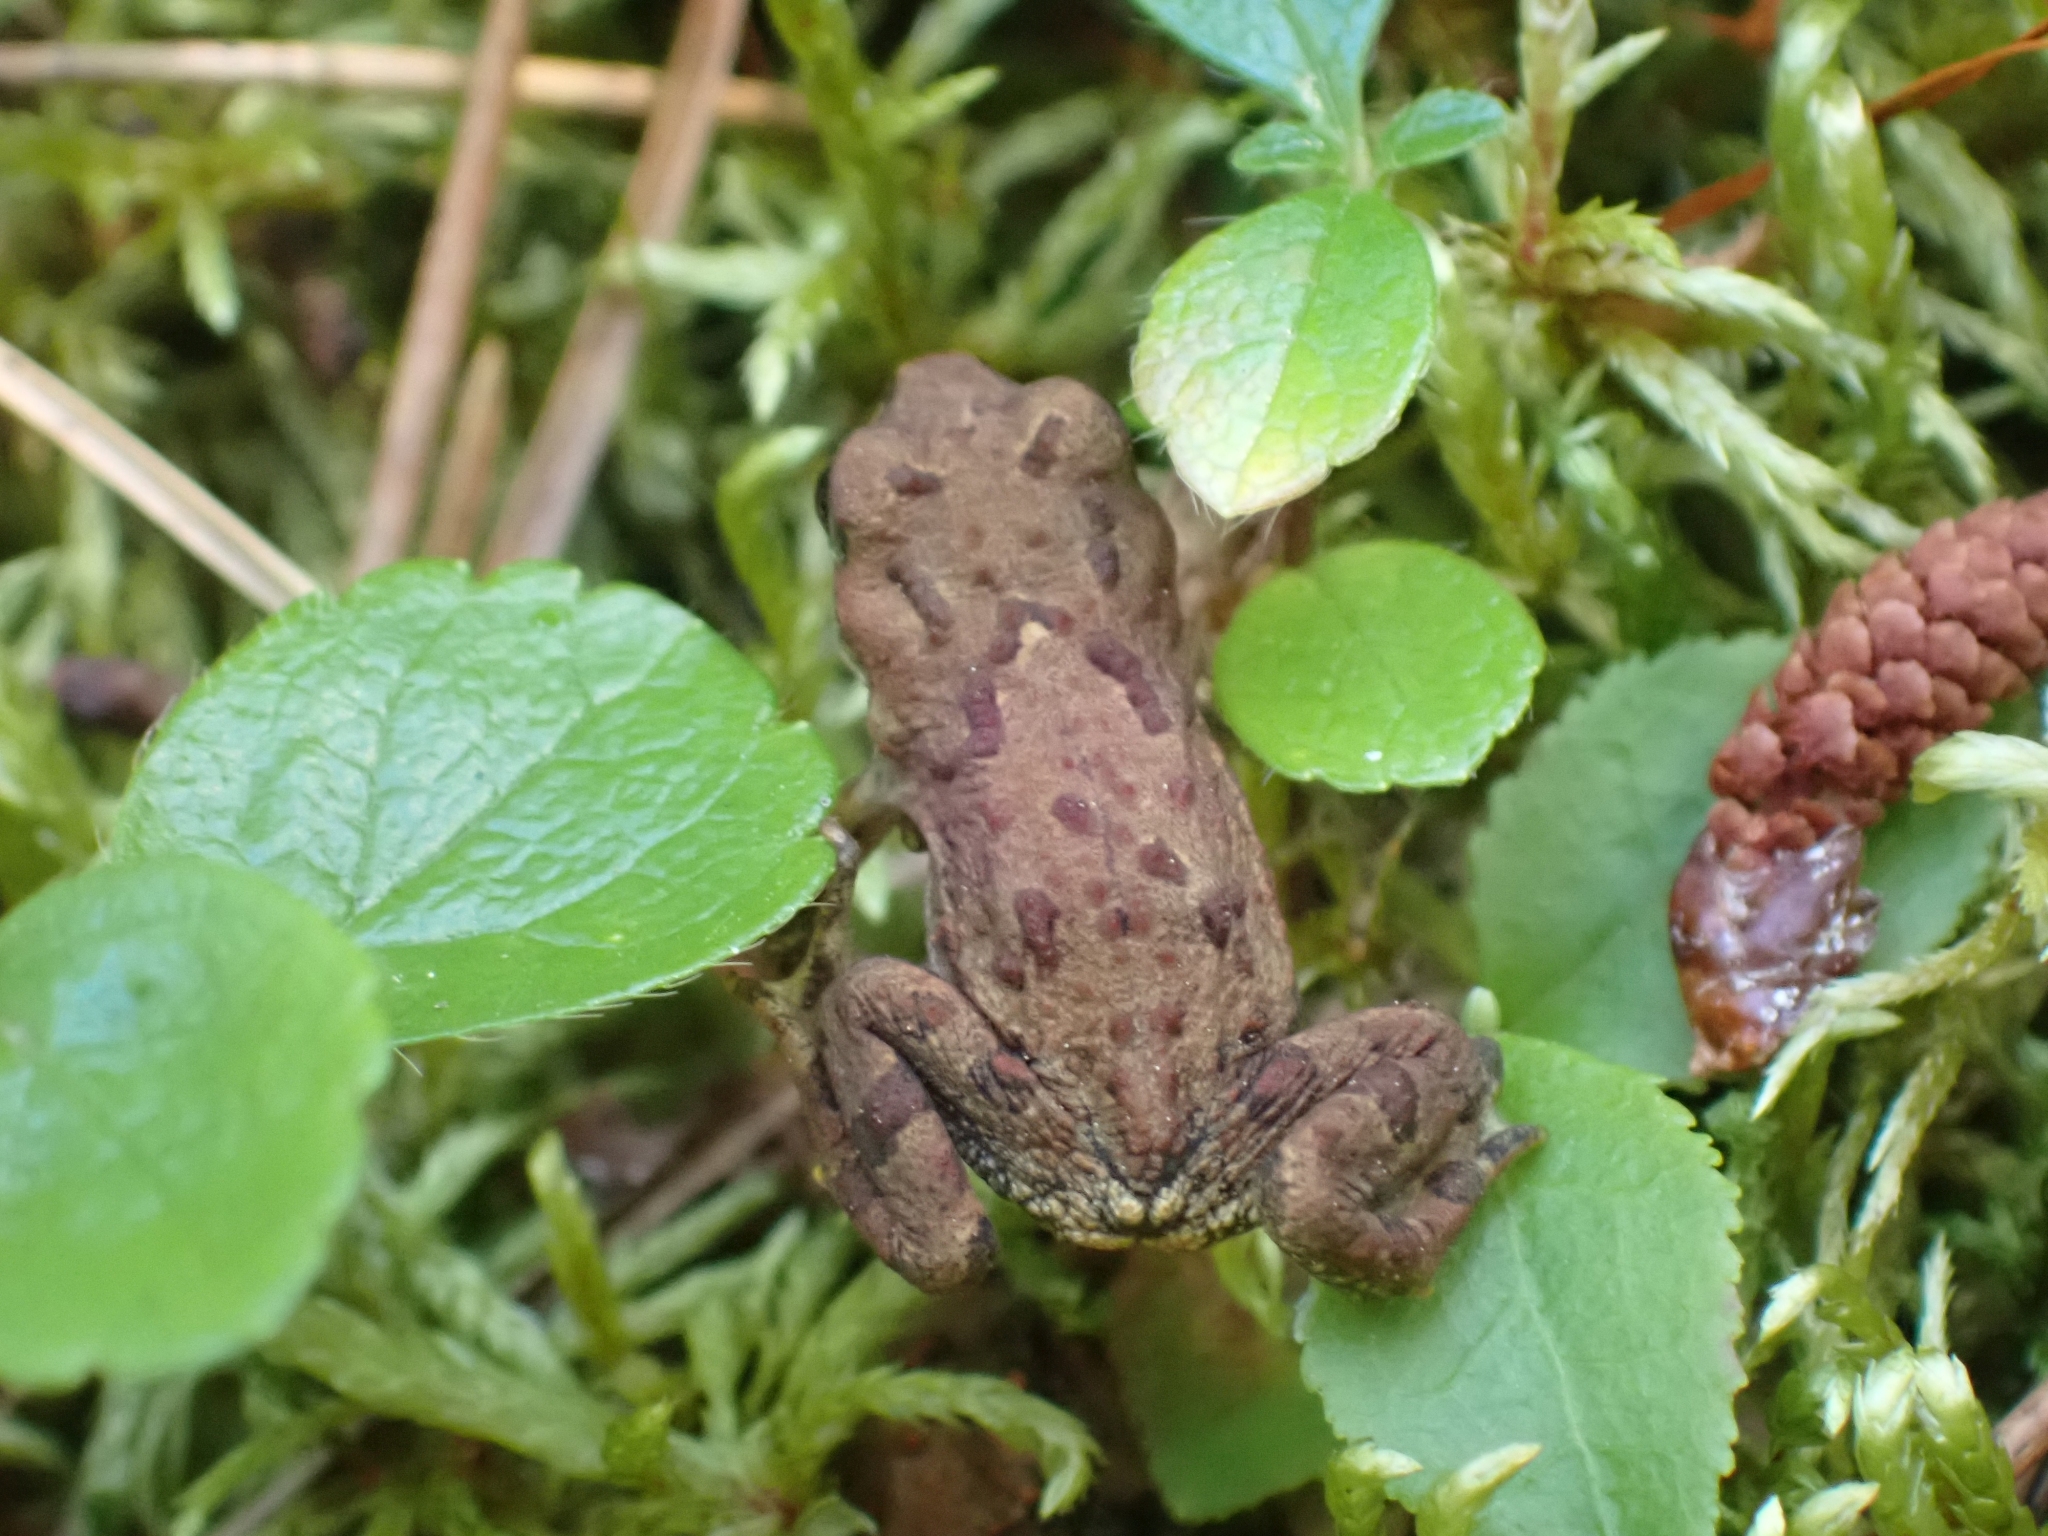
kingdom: Animalia
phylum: Chordata
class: Amphibia
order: Anura
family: Bufonidae
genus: Anaxyrus
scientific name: Anaxyrus boreas
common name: Western toad
